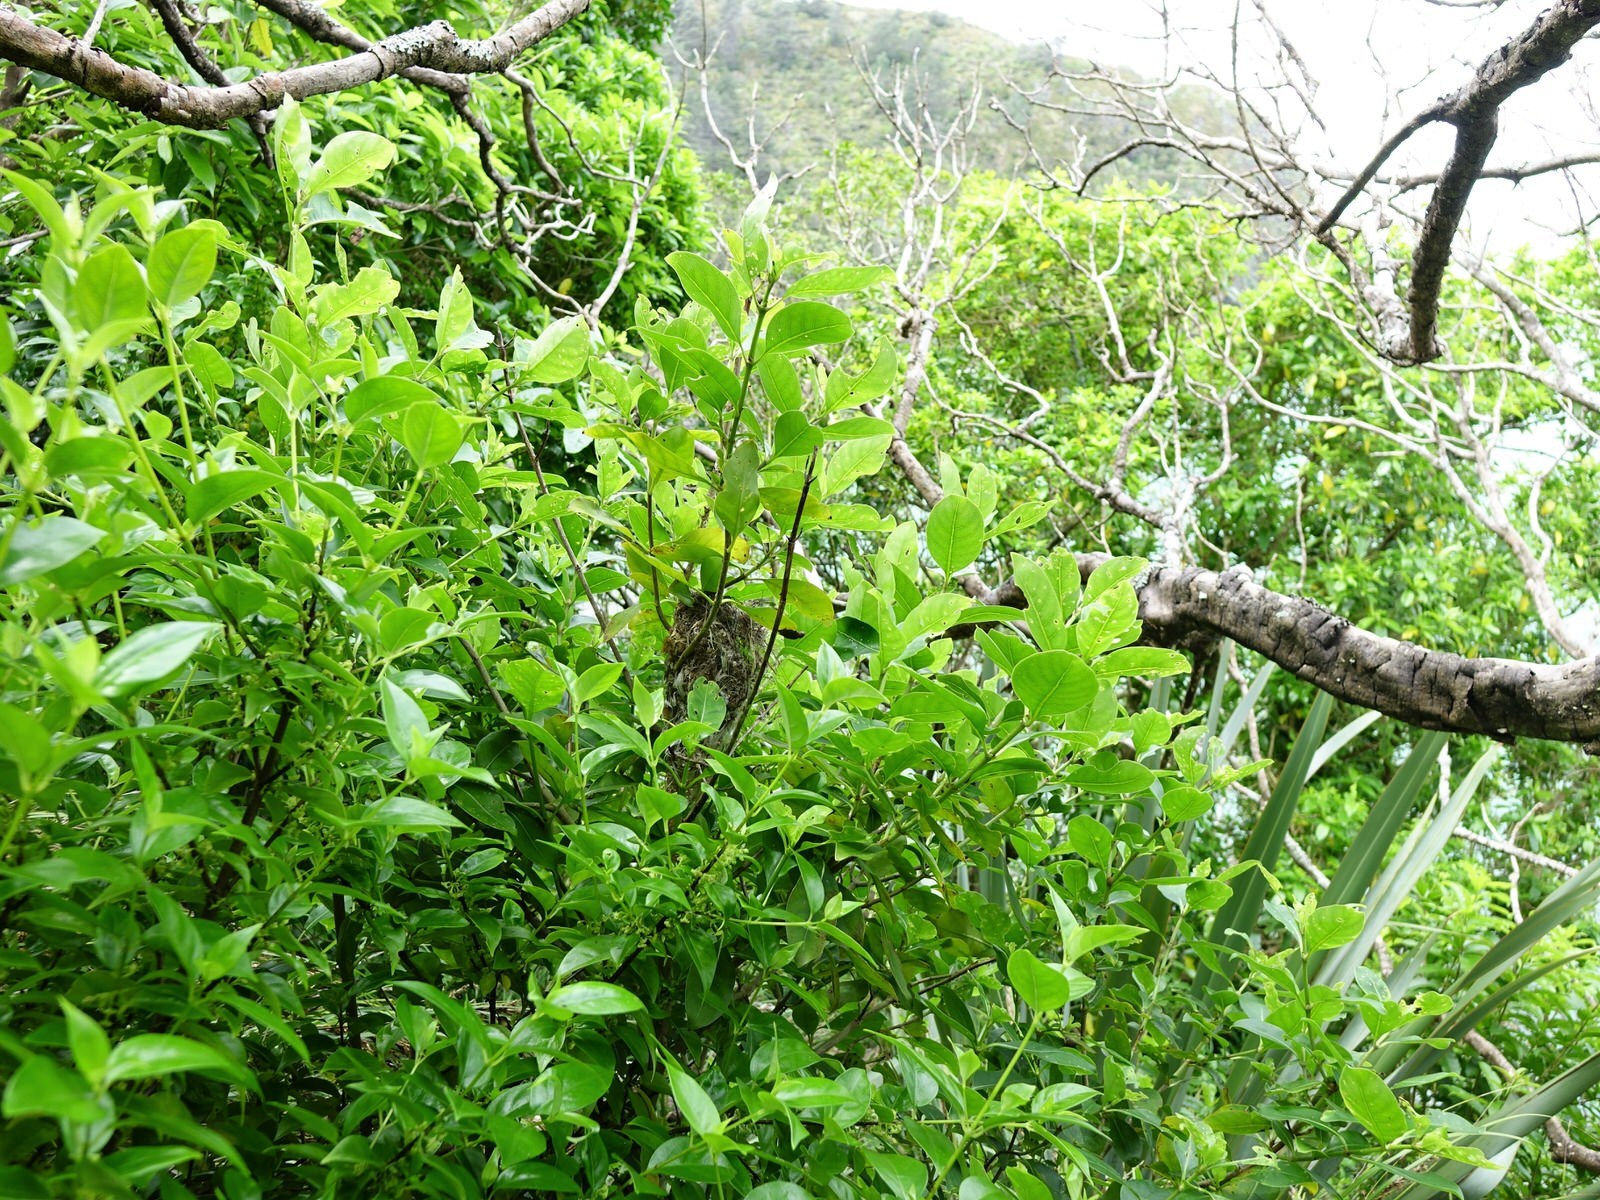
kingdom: Animalia
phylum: Chordata
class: Aves
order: Passeriformes
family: Acanthizidae
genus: Gerygone
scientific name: Gerygone igata
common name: Grey gerygone
